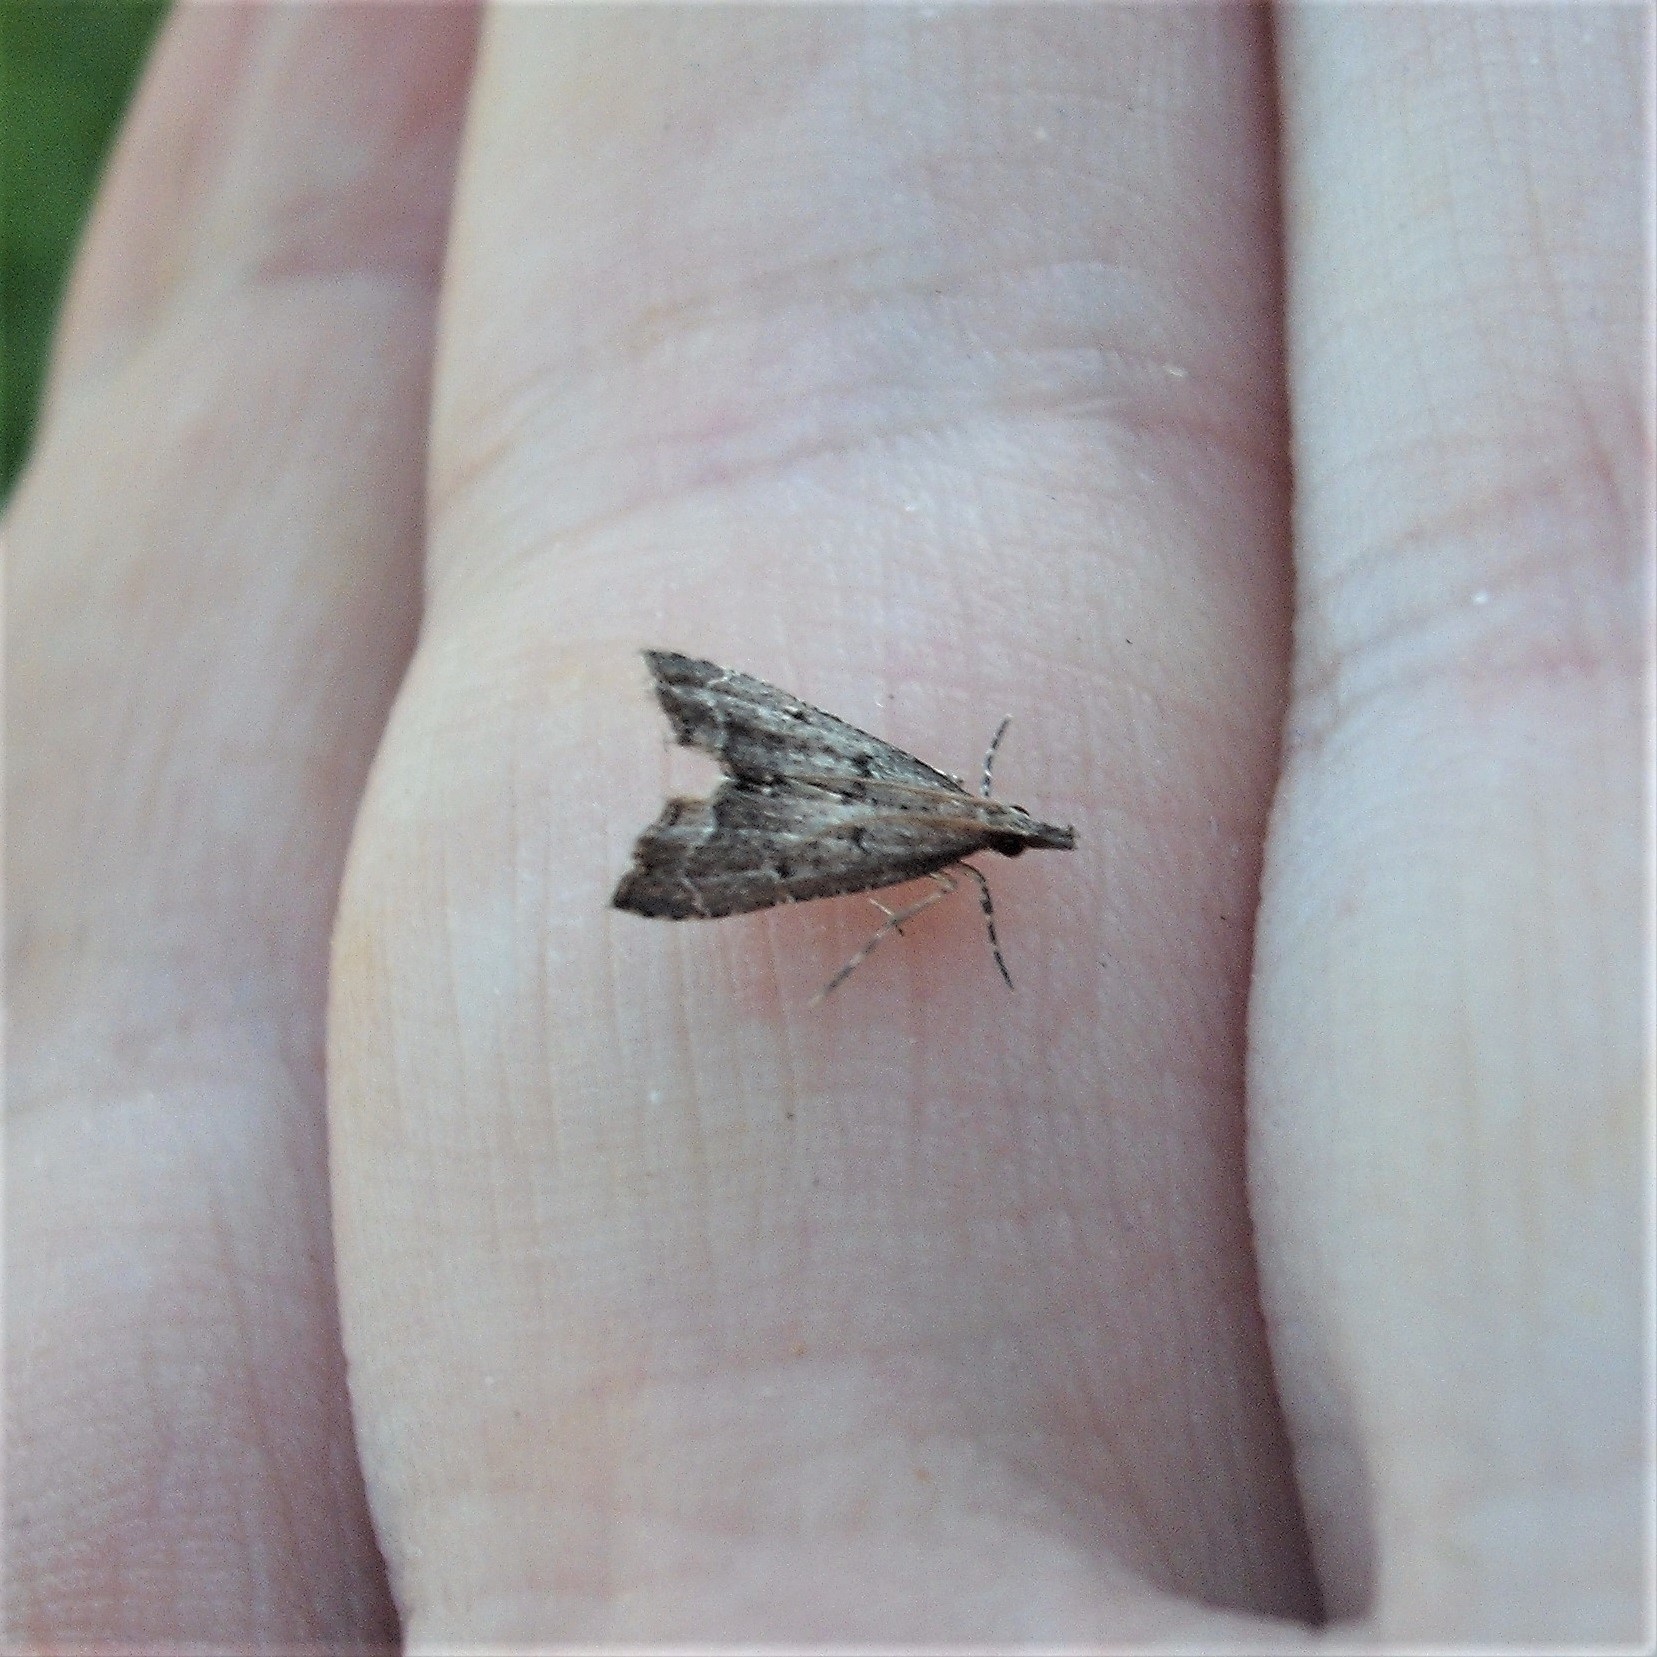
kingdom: Animalia
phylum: Arthropoda
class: Insecta
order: Lepidoptera
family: Crambidae
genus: Diplopseustis
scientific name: Diplopseustis perieresalis
